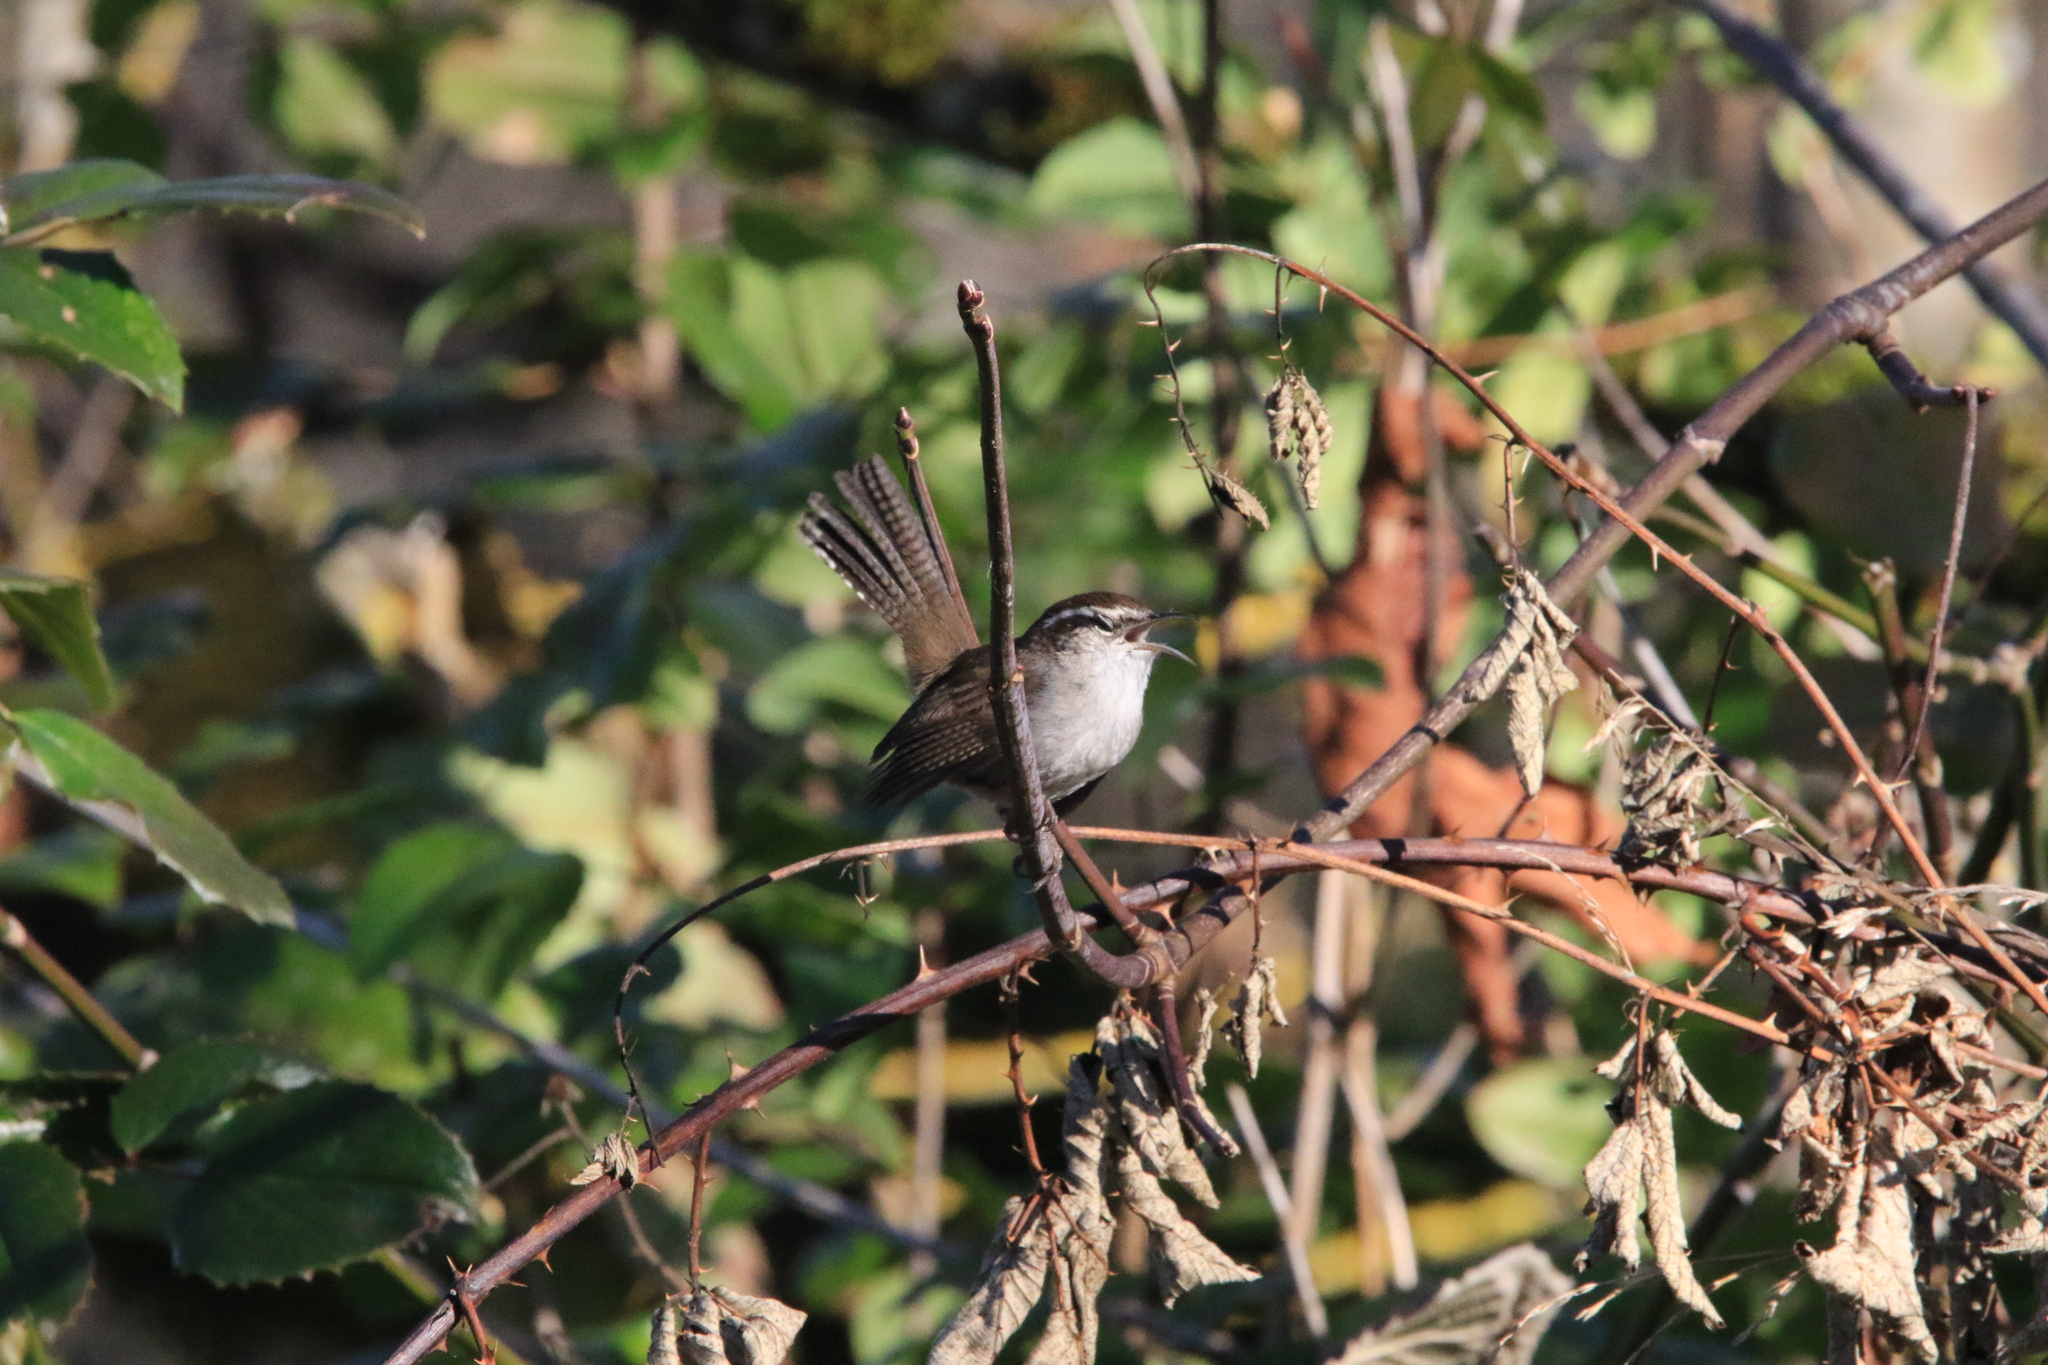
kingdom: Animalia
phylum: Chordata
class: Aves
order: Passeriformes
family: Troglodytidae
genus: Thryomanes
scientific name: Thryomanes bewickii
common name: Bewick's wren
